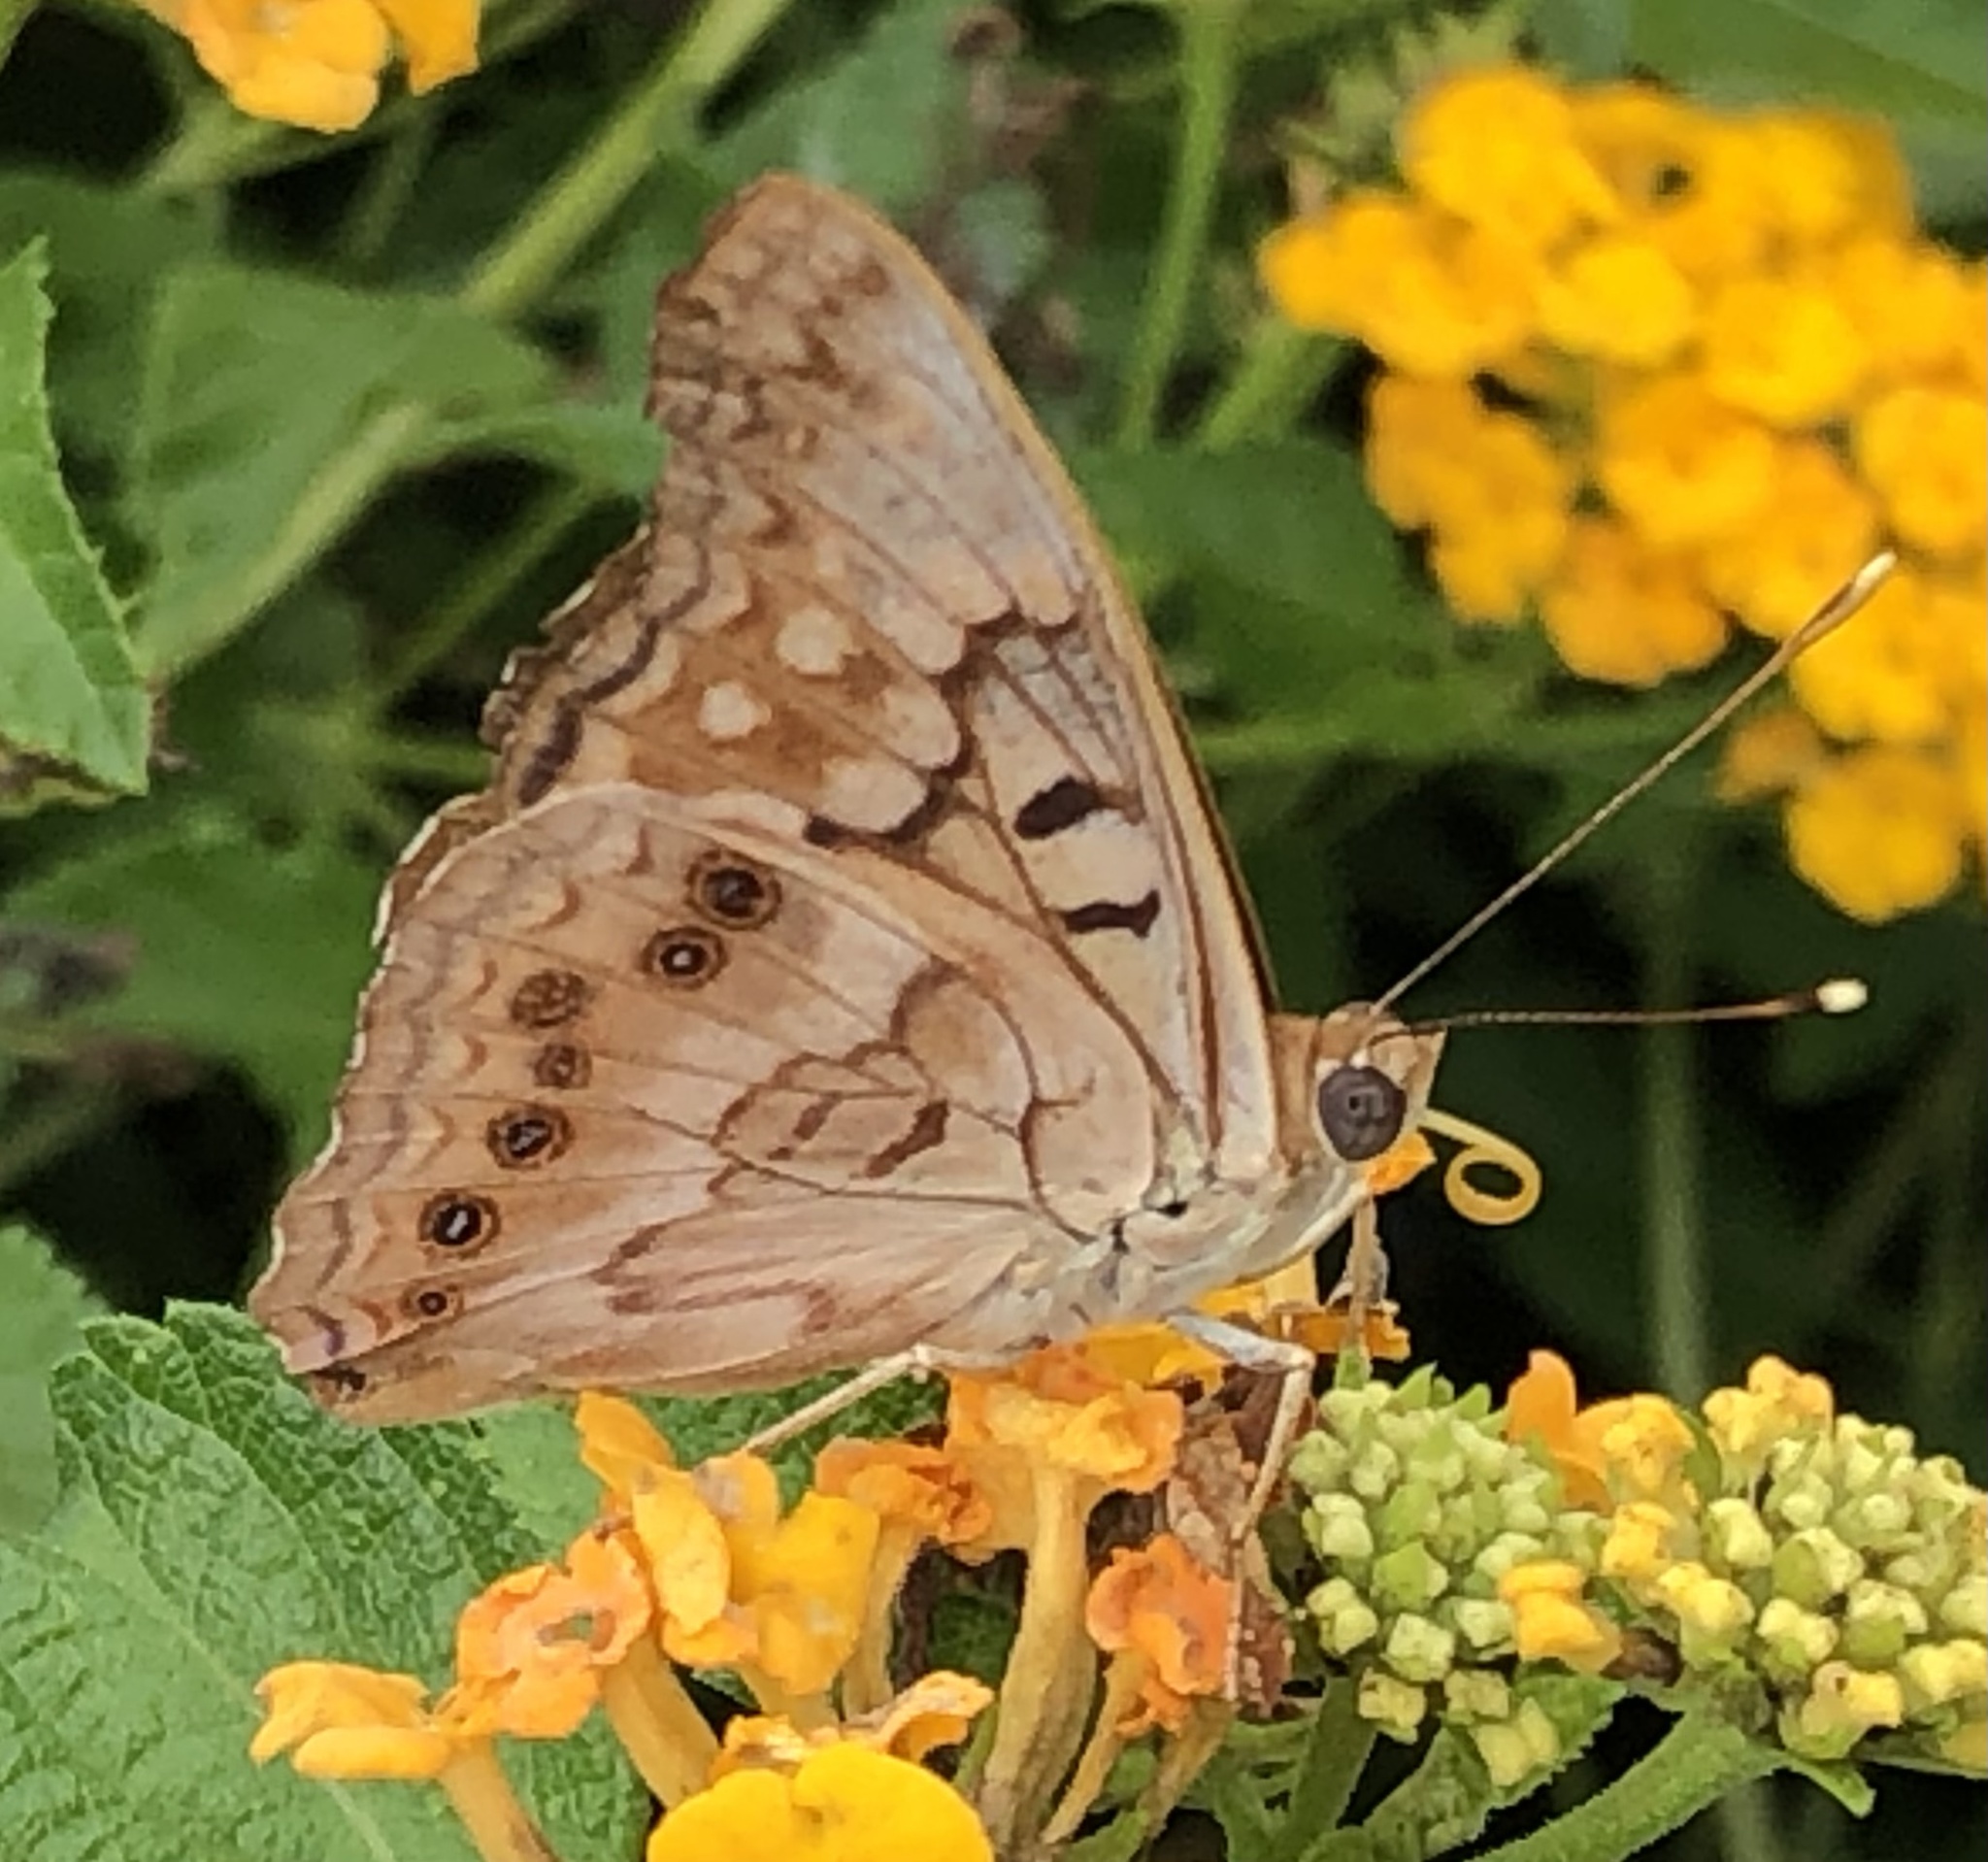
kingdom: Animalia
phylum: Arthropoda
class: Insecta
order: Lepidoptera
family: Nymphalidae
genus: Asterocampa
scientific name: Asterocampa clyton
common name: Tawny emperor
